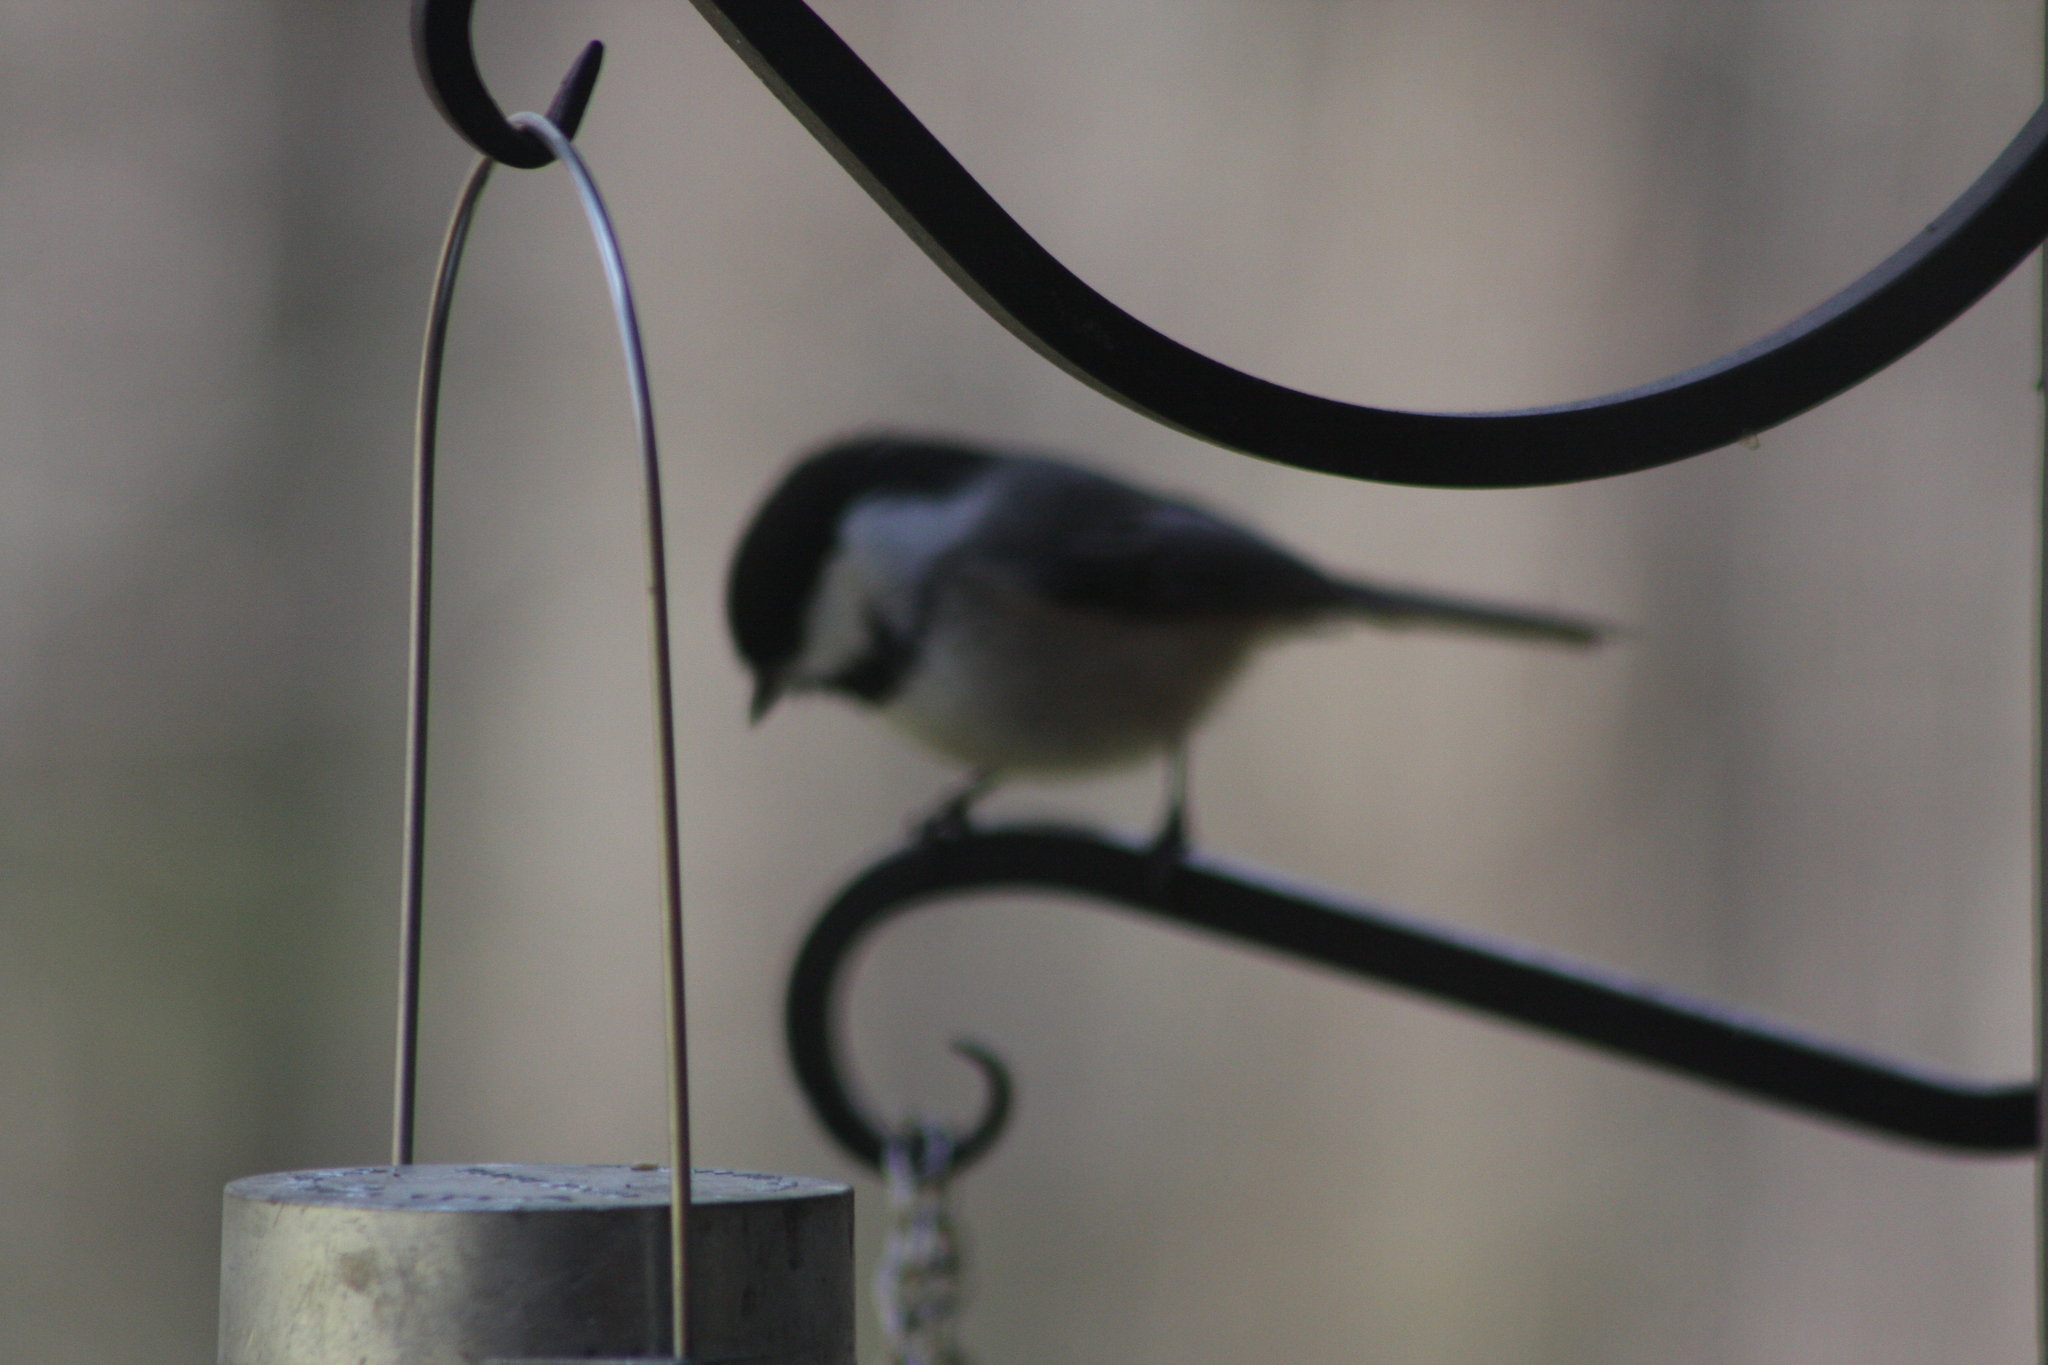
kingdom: Animalia
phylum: Chordata
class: Aves
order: Passeriformes
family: Paridae
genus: Poecile
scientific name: Poecile atricapillus
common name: Black-capped chickadee
